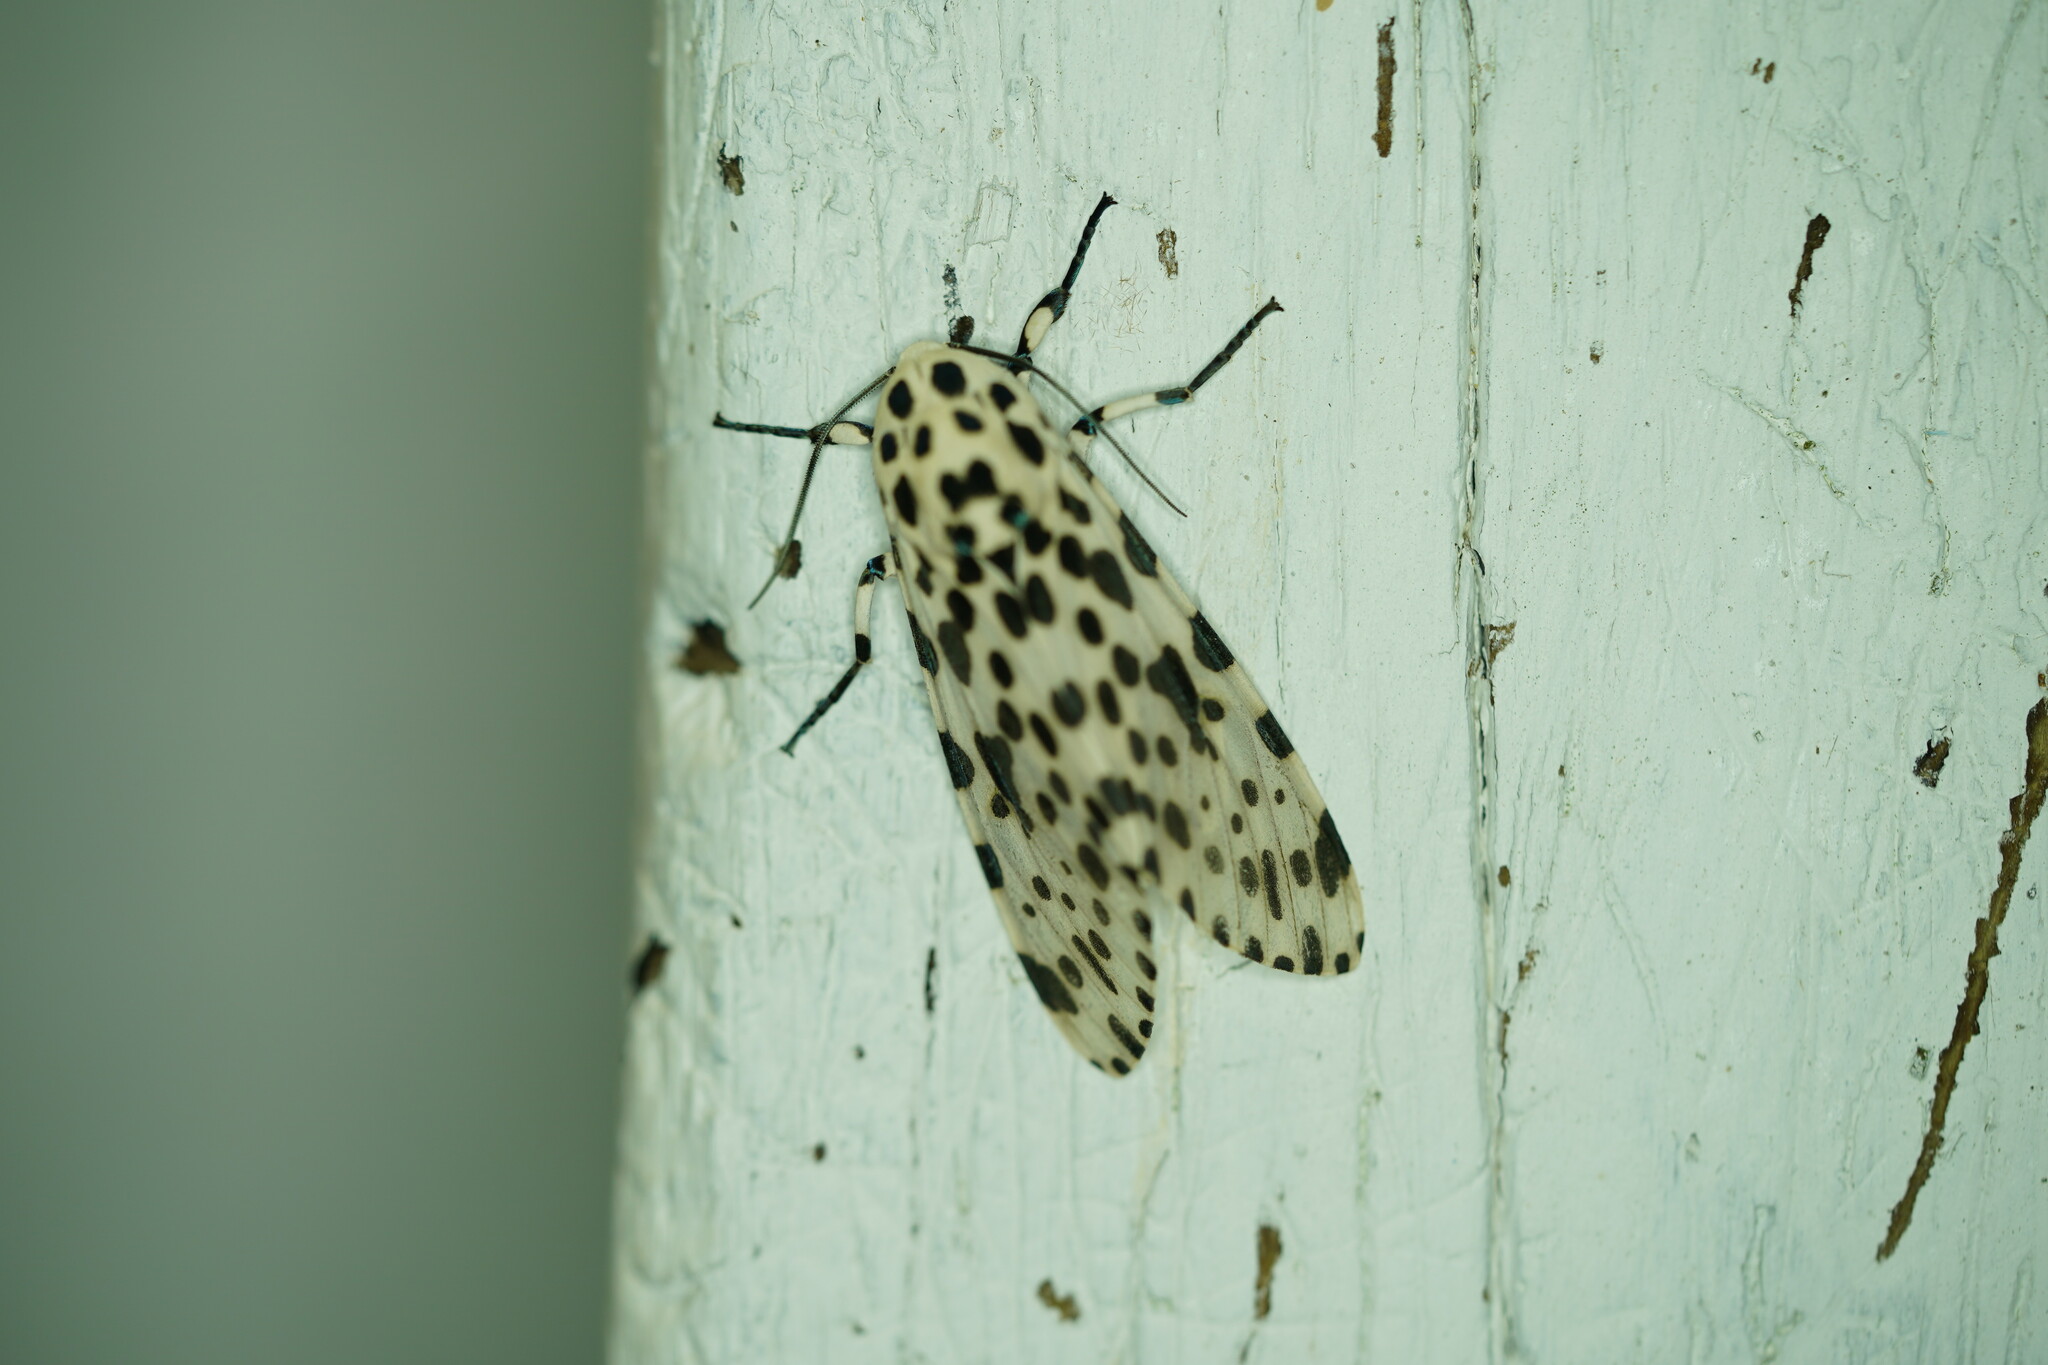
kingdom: Animalia
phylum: Arthropoda
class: Insecta
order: Lepidoptera
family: Erebidae
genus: Hypercompe
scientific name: Hypercompe scribonia
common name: Giant leopard moth
